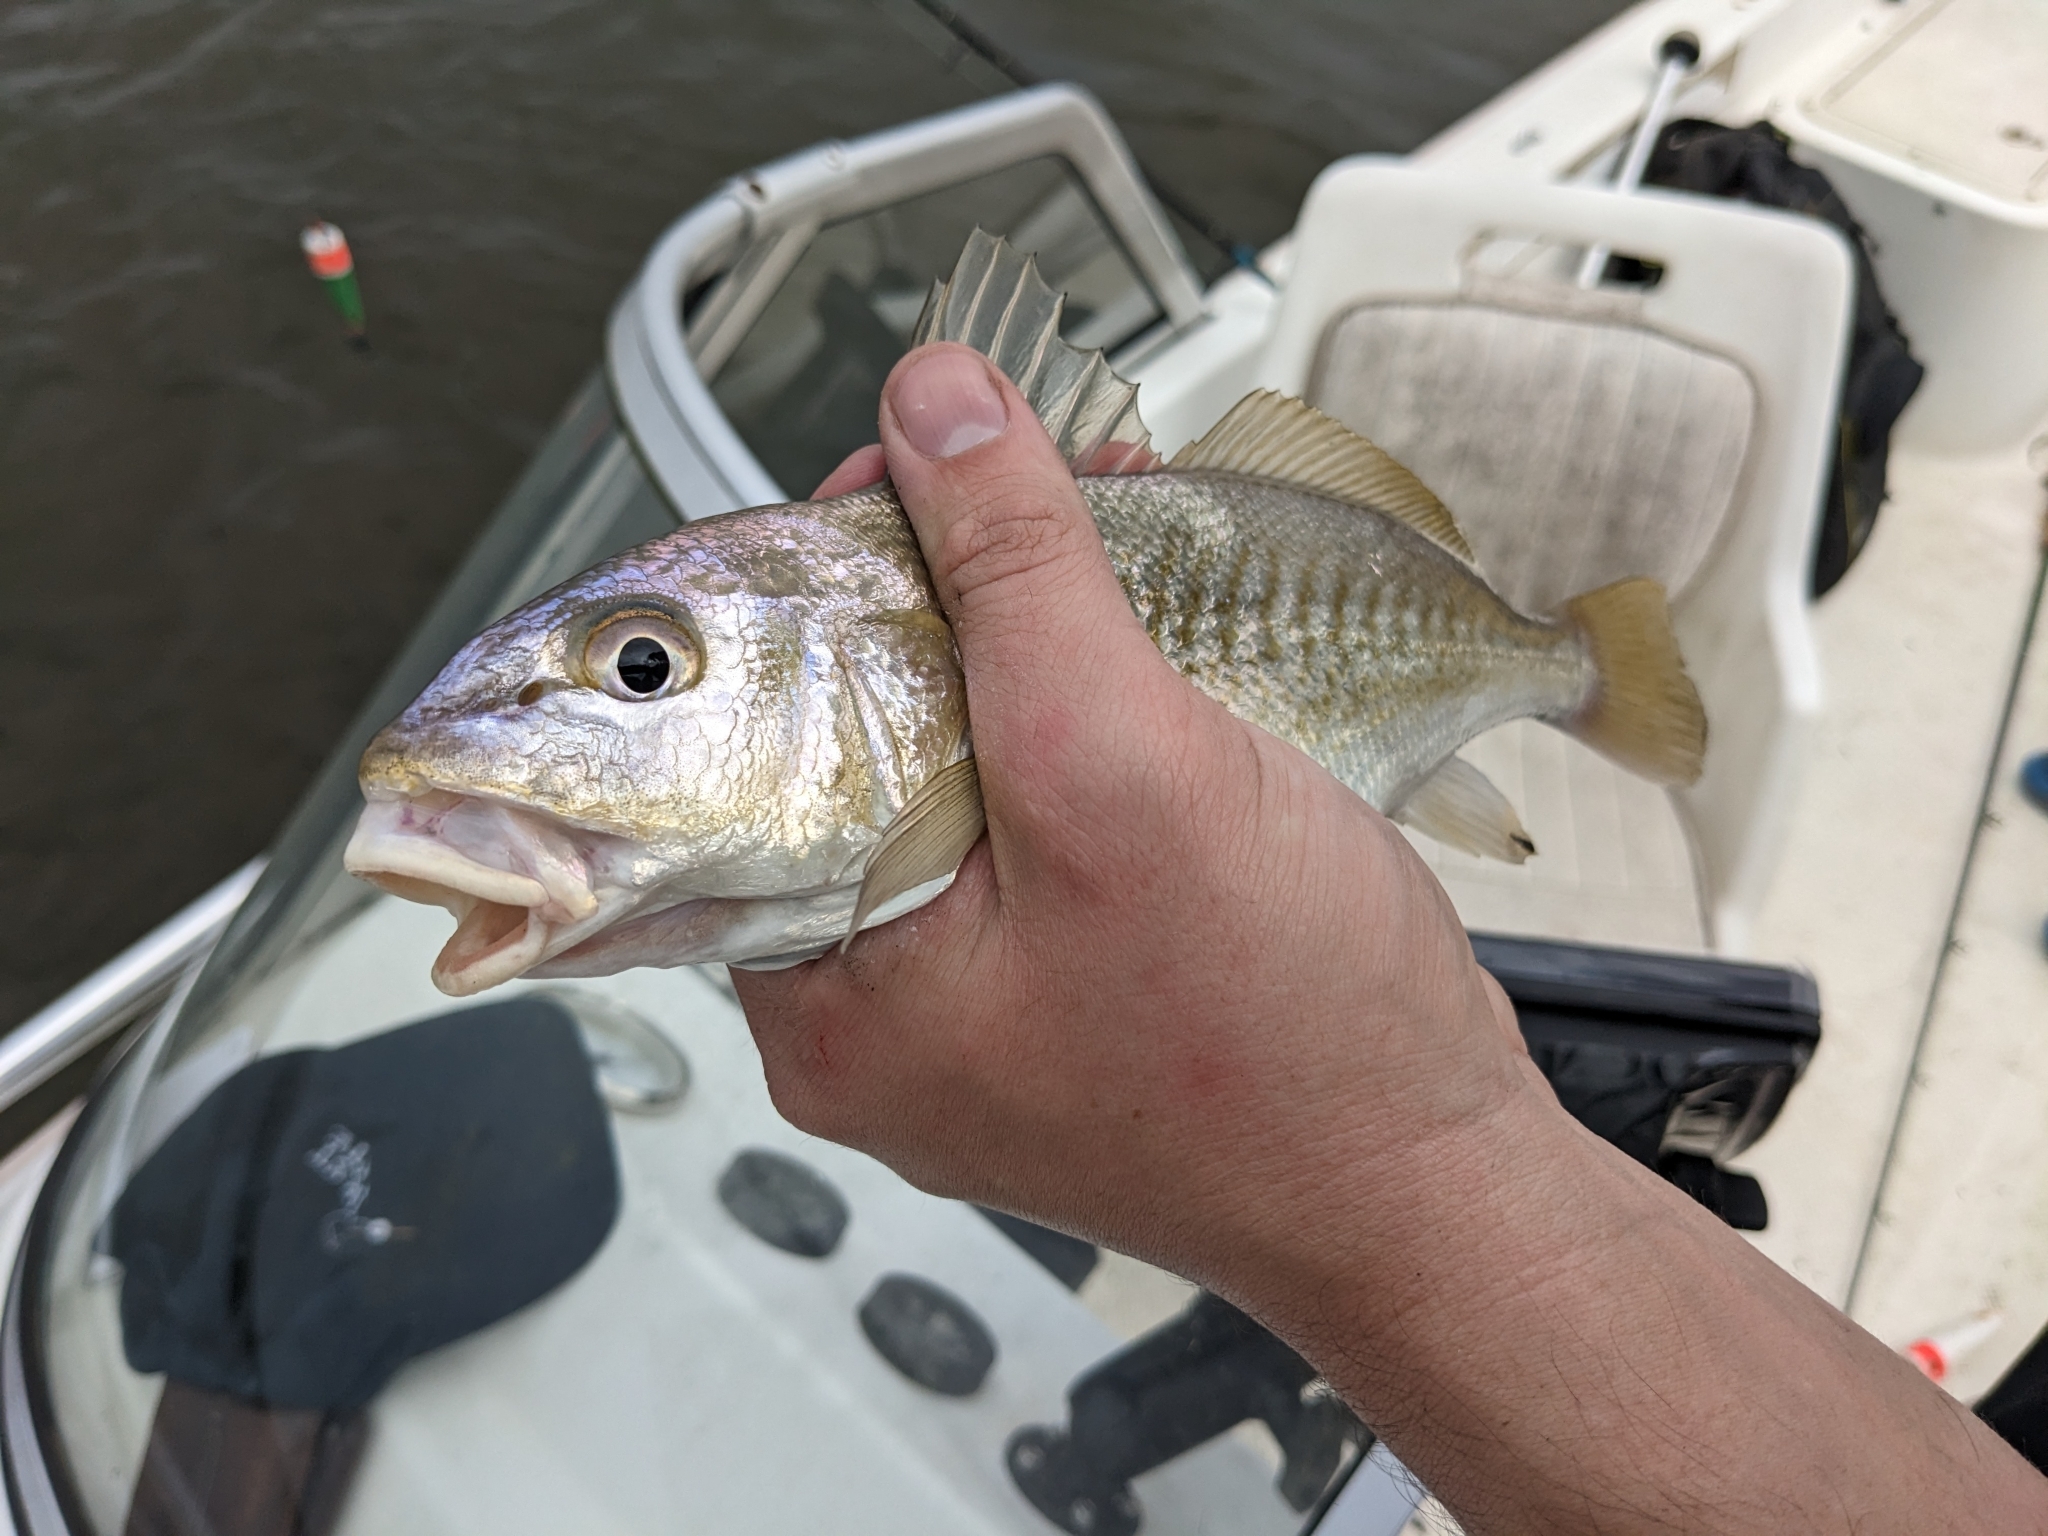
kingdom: Animalia
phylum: Chordata
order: Perciformes
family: Sciaenidae
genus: Micropogonias
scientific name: Micropogonias undulatus
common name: Atlantic croaker
